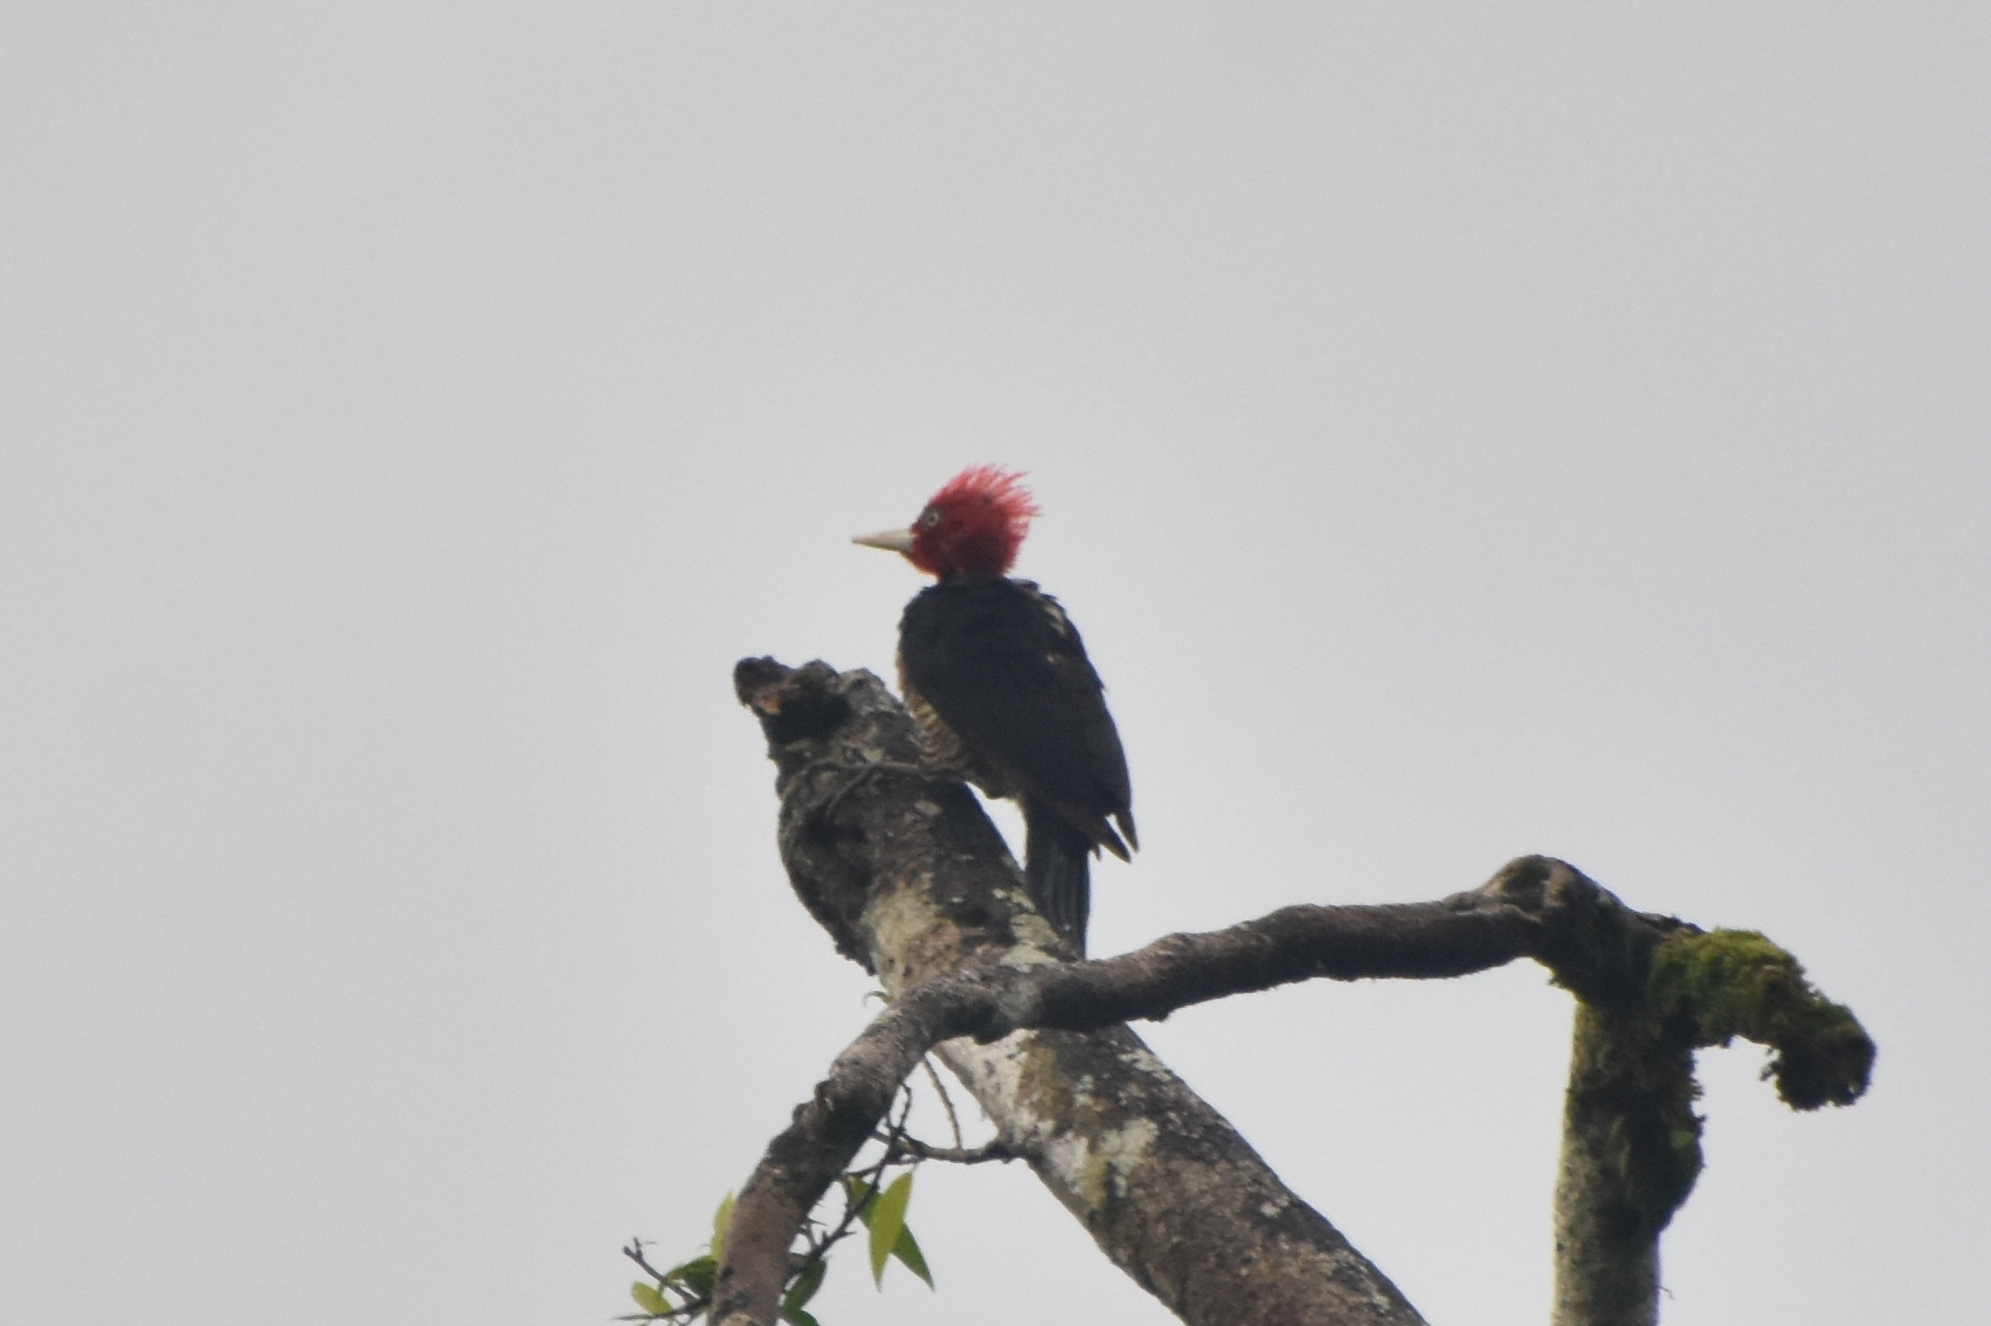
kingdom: Animalia
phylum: Chordata
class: Aves
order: Piciformes
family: Picidae
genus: Campephilus
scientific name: Campephilus guatemalensis
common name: Pale-billed woodpecker
